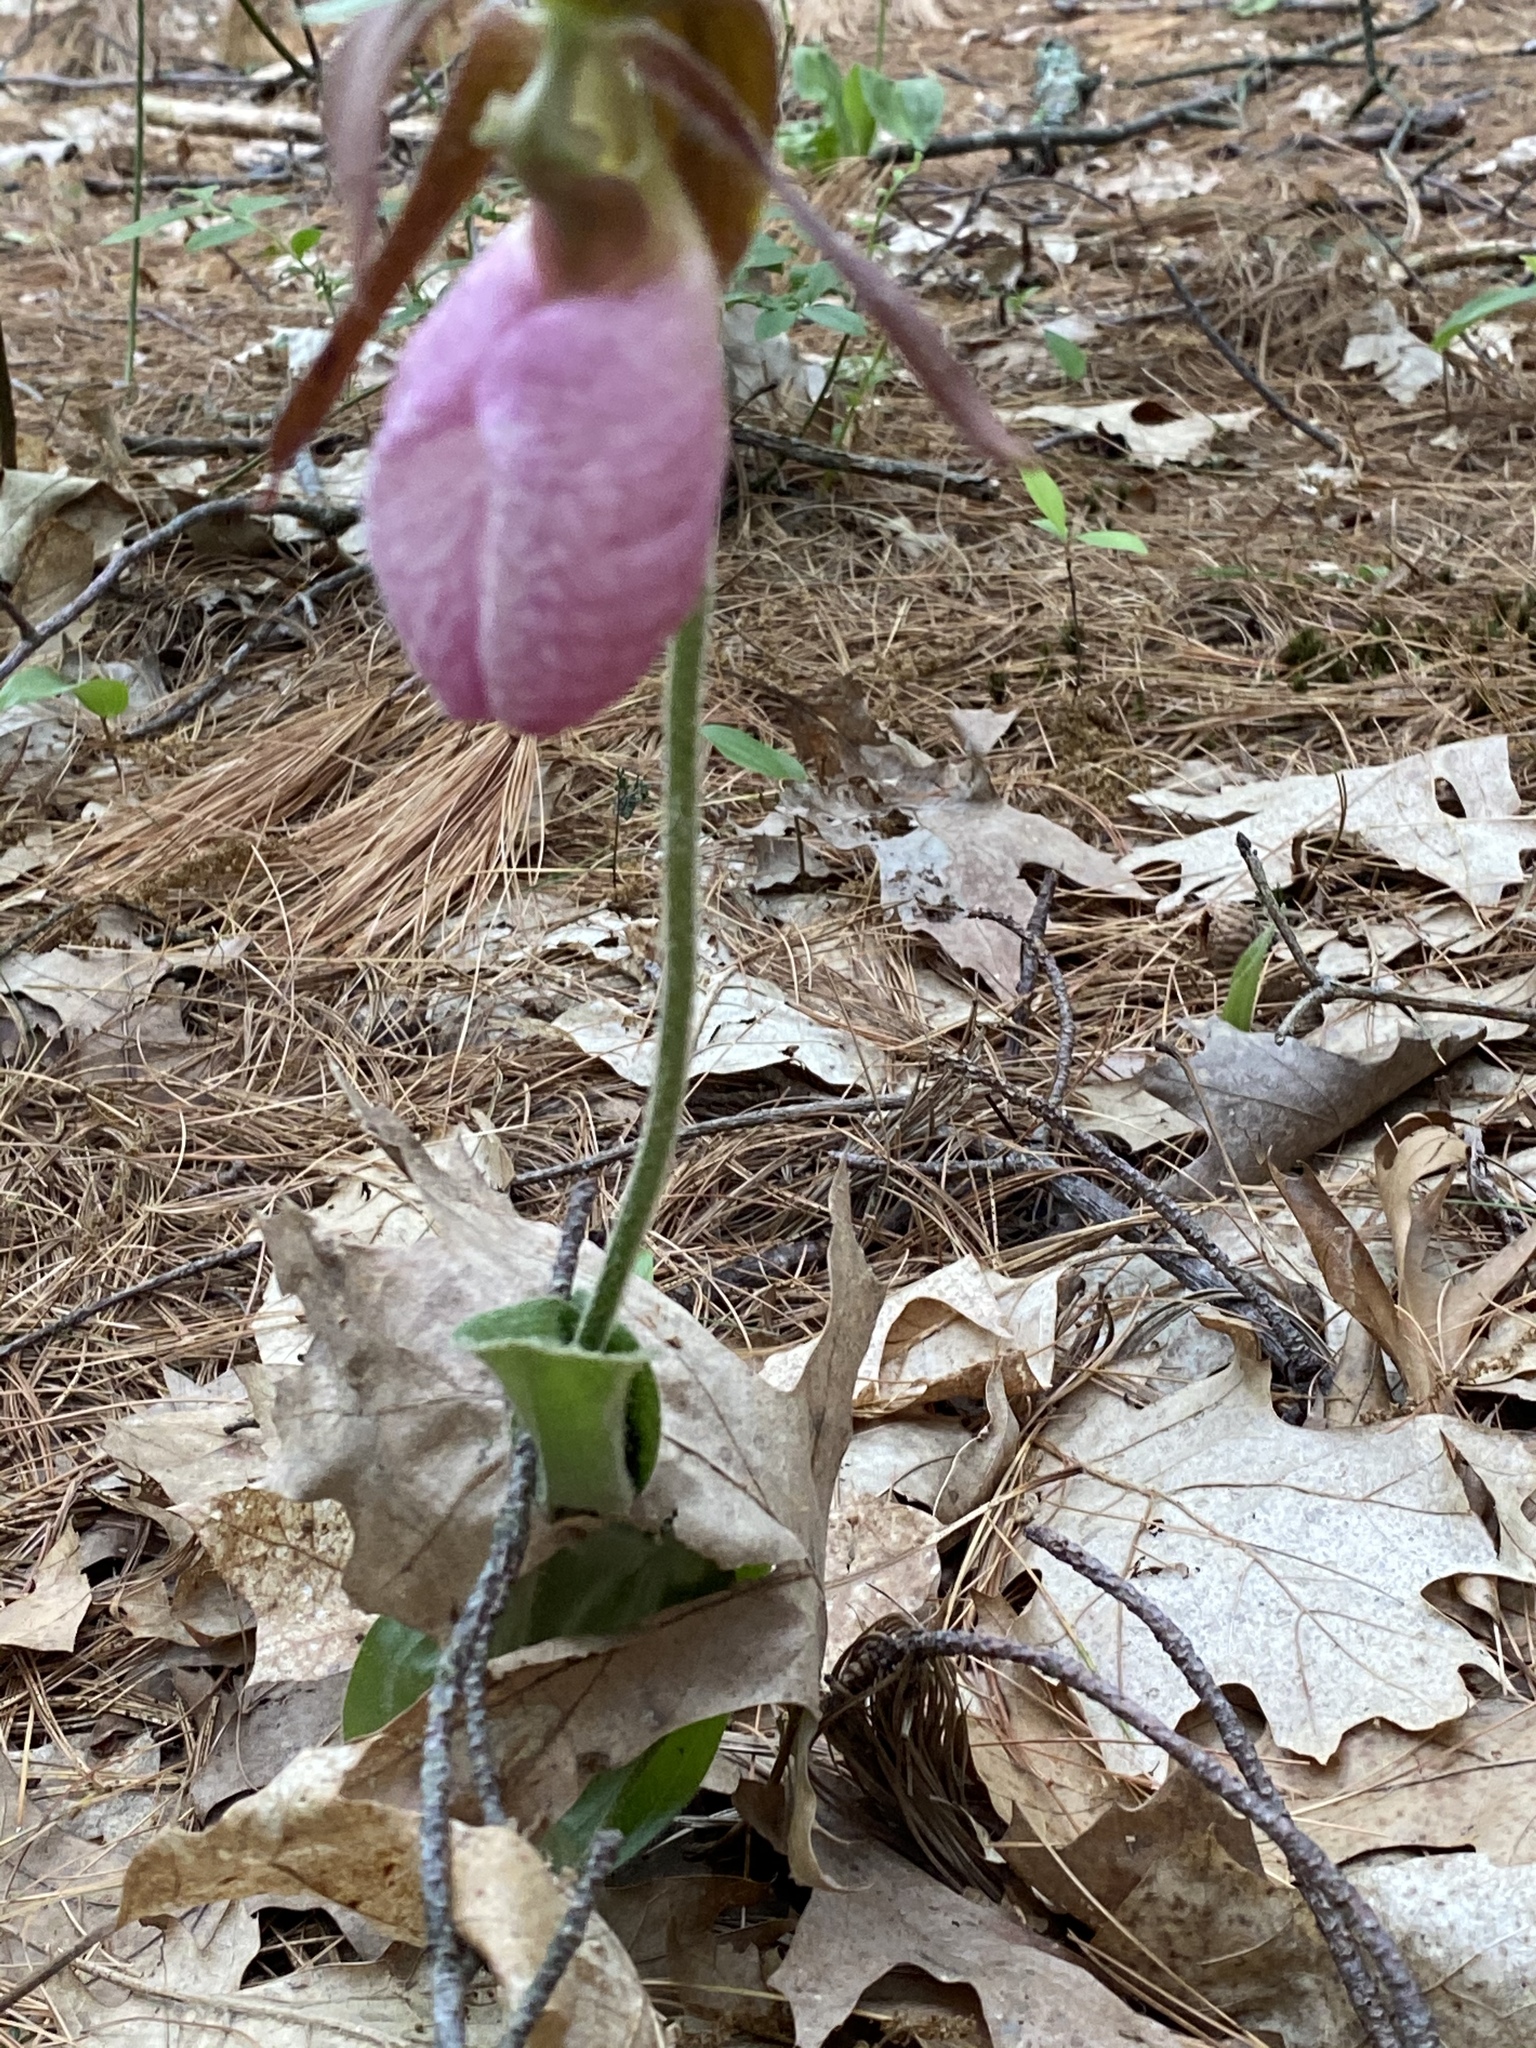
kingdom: Plantae
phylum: Tracheophyta
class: Liliopsida
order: Asparagales
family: Orchidaceae
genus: Cypripedium
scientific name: Cypripedium acaule
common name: Pink lady's-slipper
